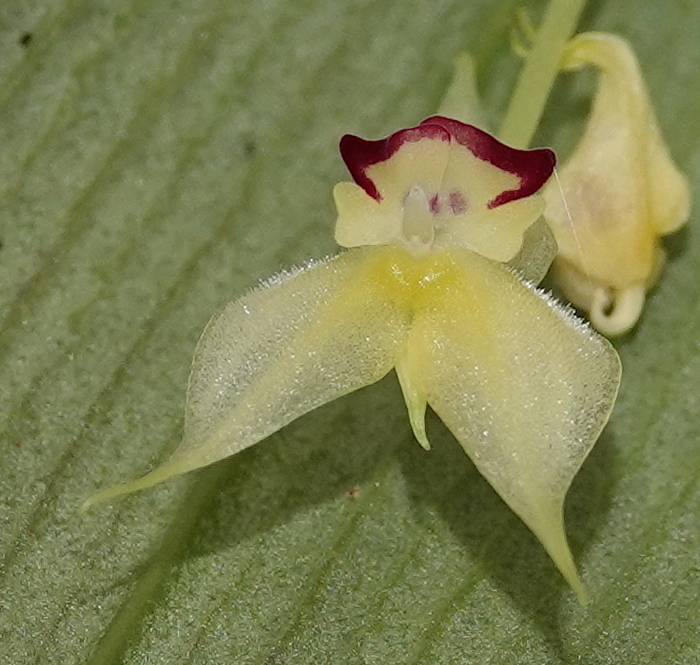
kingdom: Plantae
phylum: Tracheophyta
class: Liliopsida
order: Asparagales
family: Orchidaceae
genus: Lepanthes
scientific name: Lepanthes pachoi
